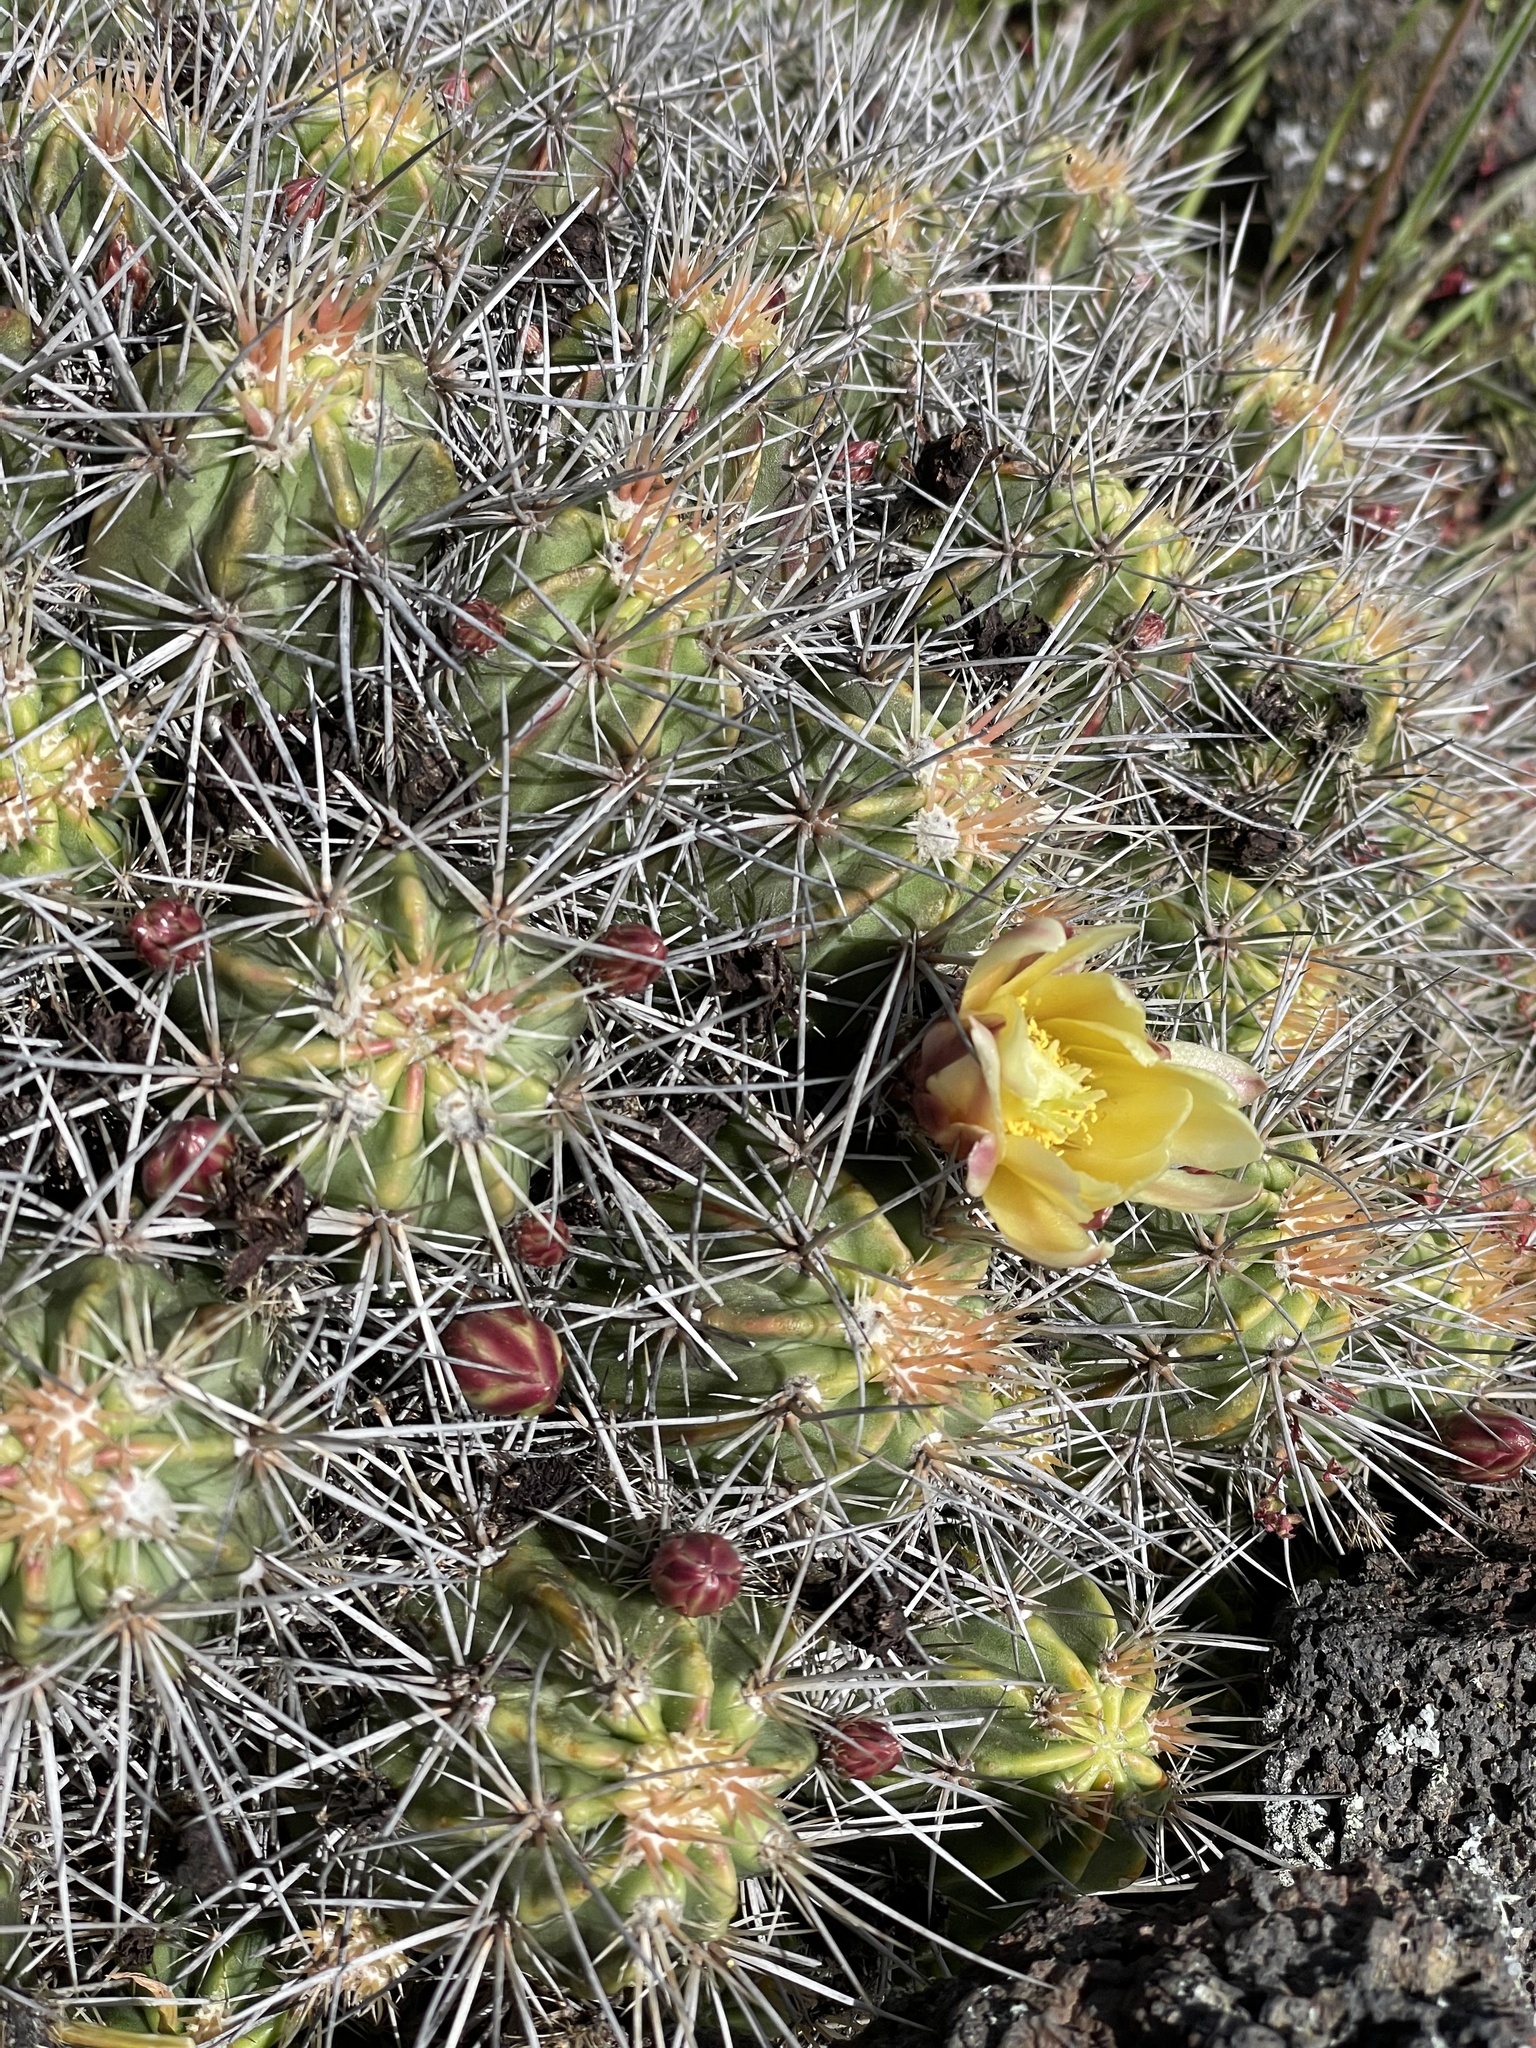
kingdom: Plantae
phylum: Tracheophyta
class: Magnoliopsida
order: Caryophyllales
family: Cactaceae
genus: Echinocereus
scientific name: Echinocereus maritimus
